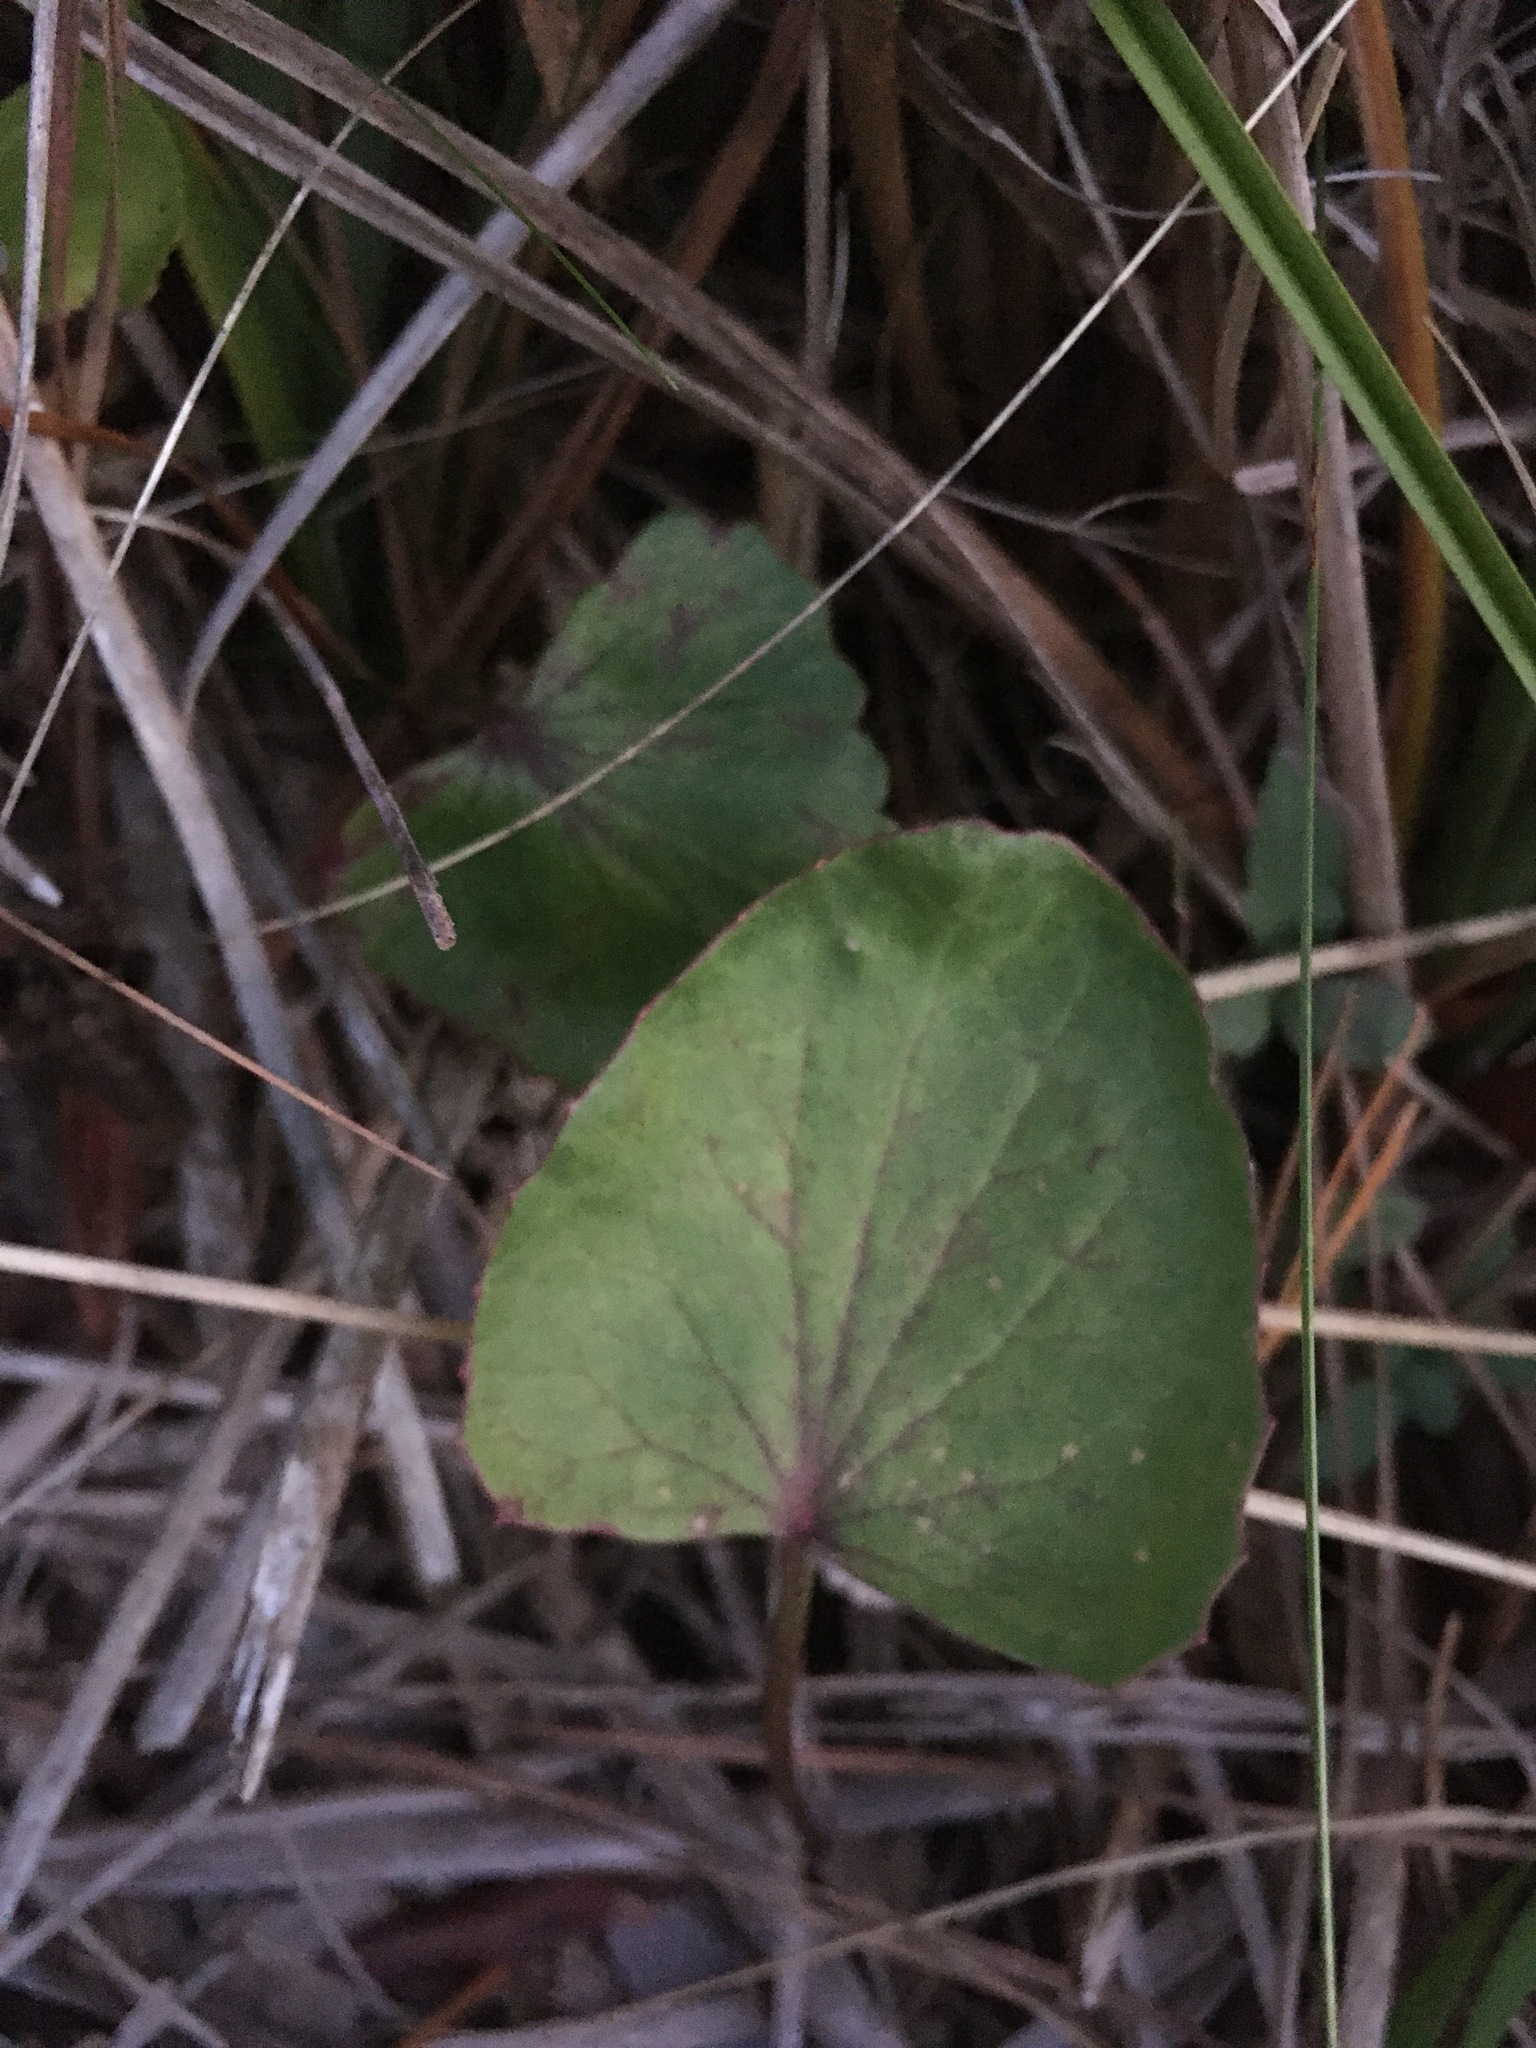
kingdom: Plantae
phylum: Tracheophyta
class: Magnoliopsida
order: Apiales
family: Apiaceae
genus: Centella
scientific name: Centella erecta
